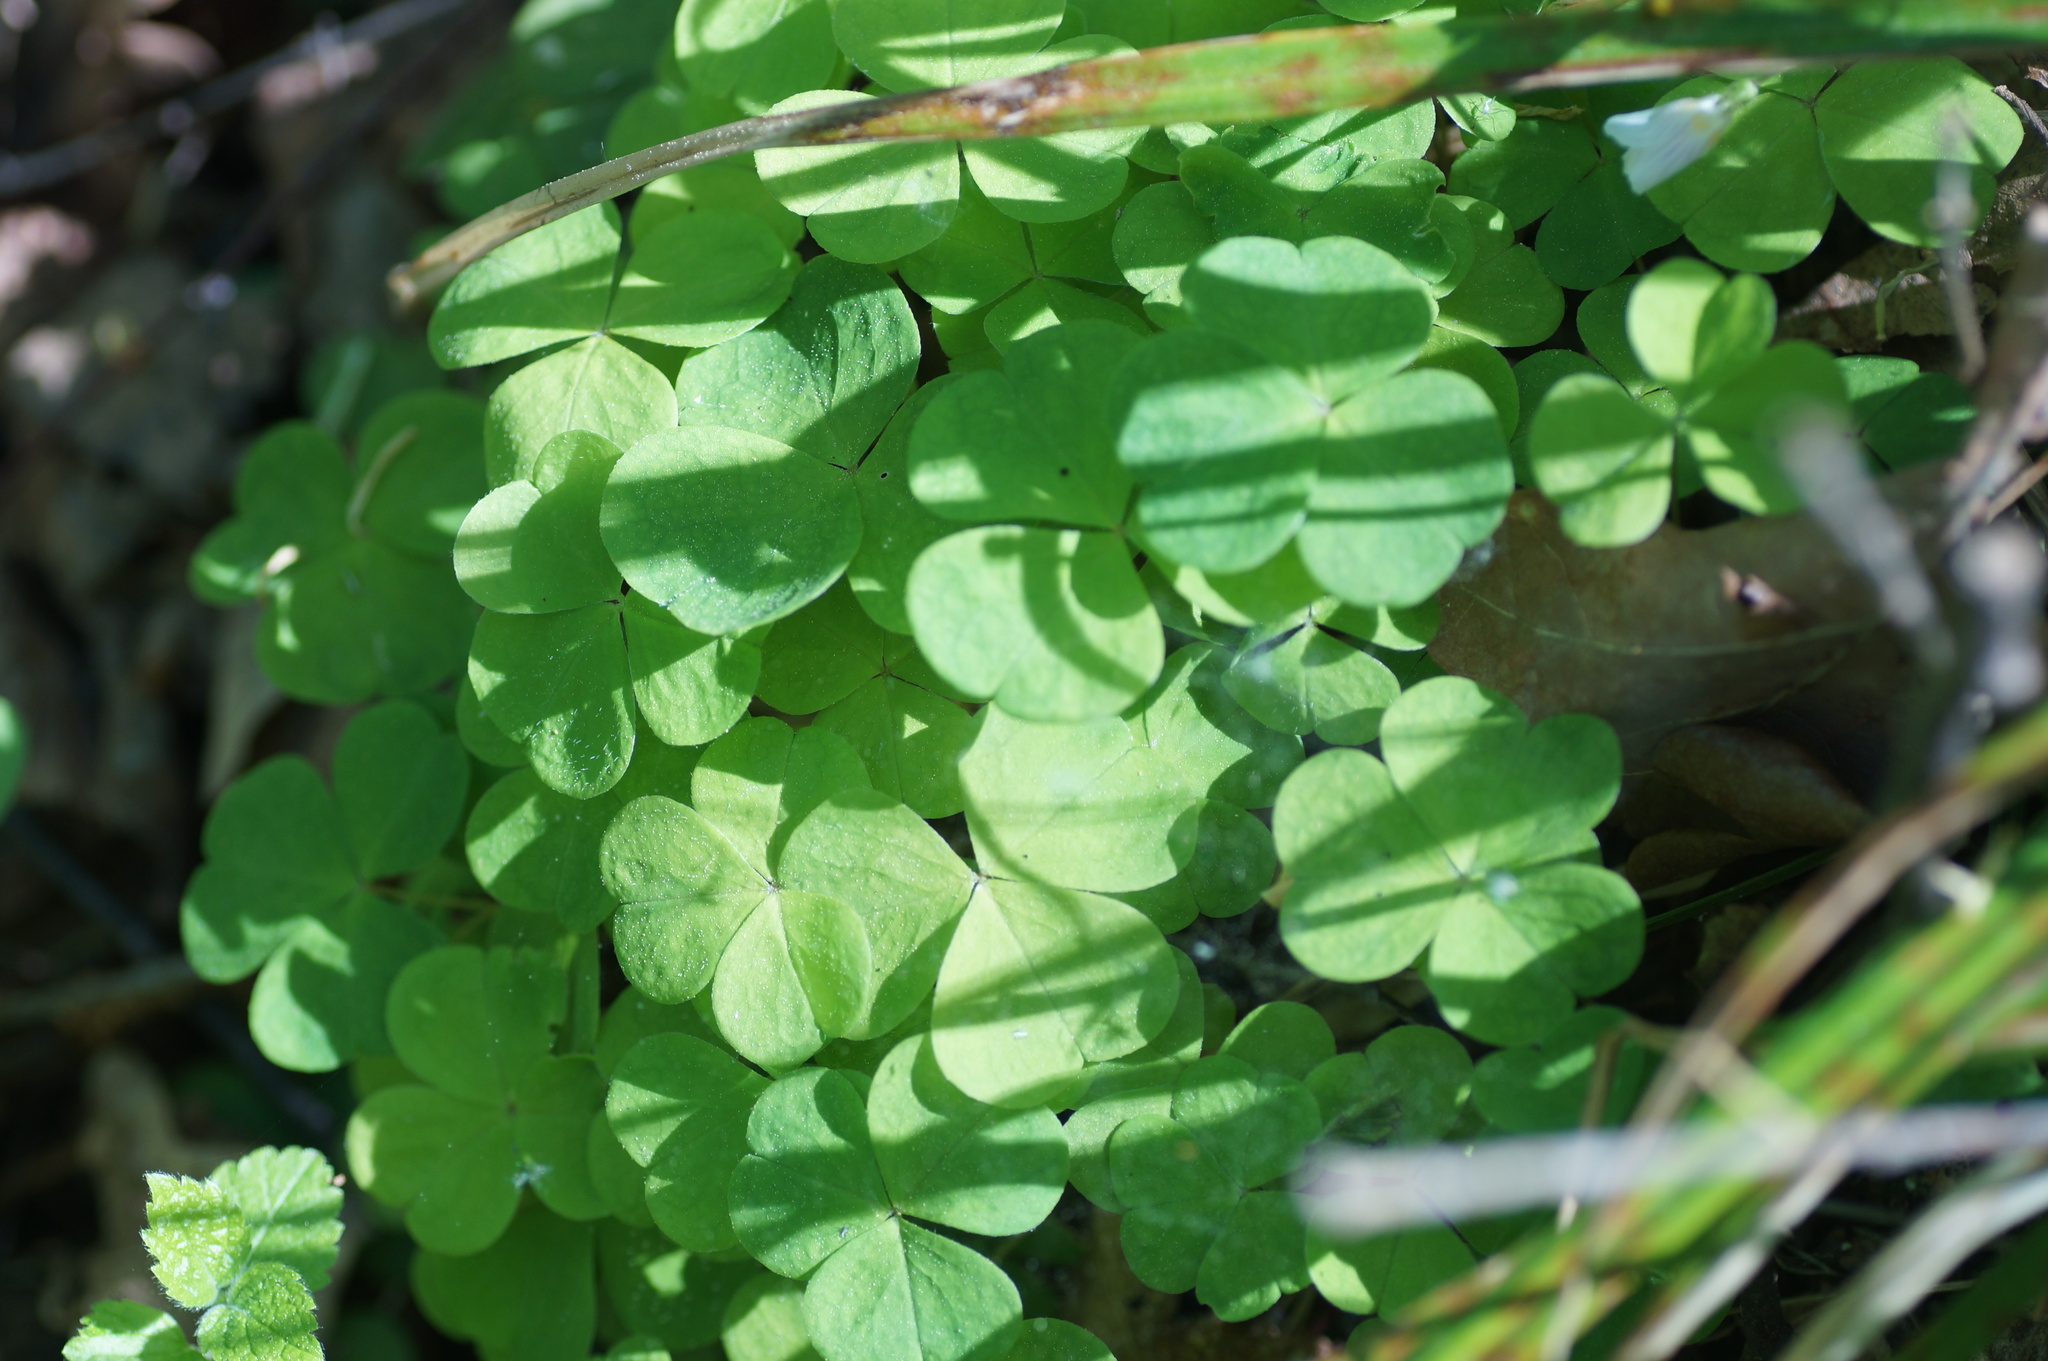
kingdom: Plantae
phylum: Tracheophyta
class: Magnoliopsida
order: Oxalidales
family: Oxalidaceae
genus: Oxalis
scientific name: Oxalis acetosella
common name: Wood-sorrel
